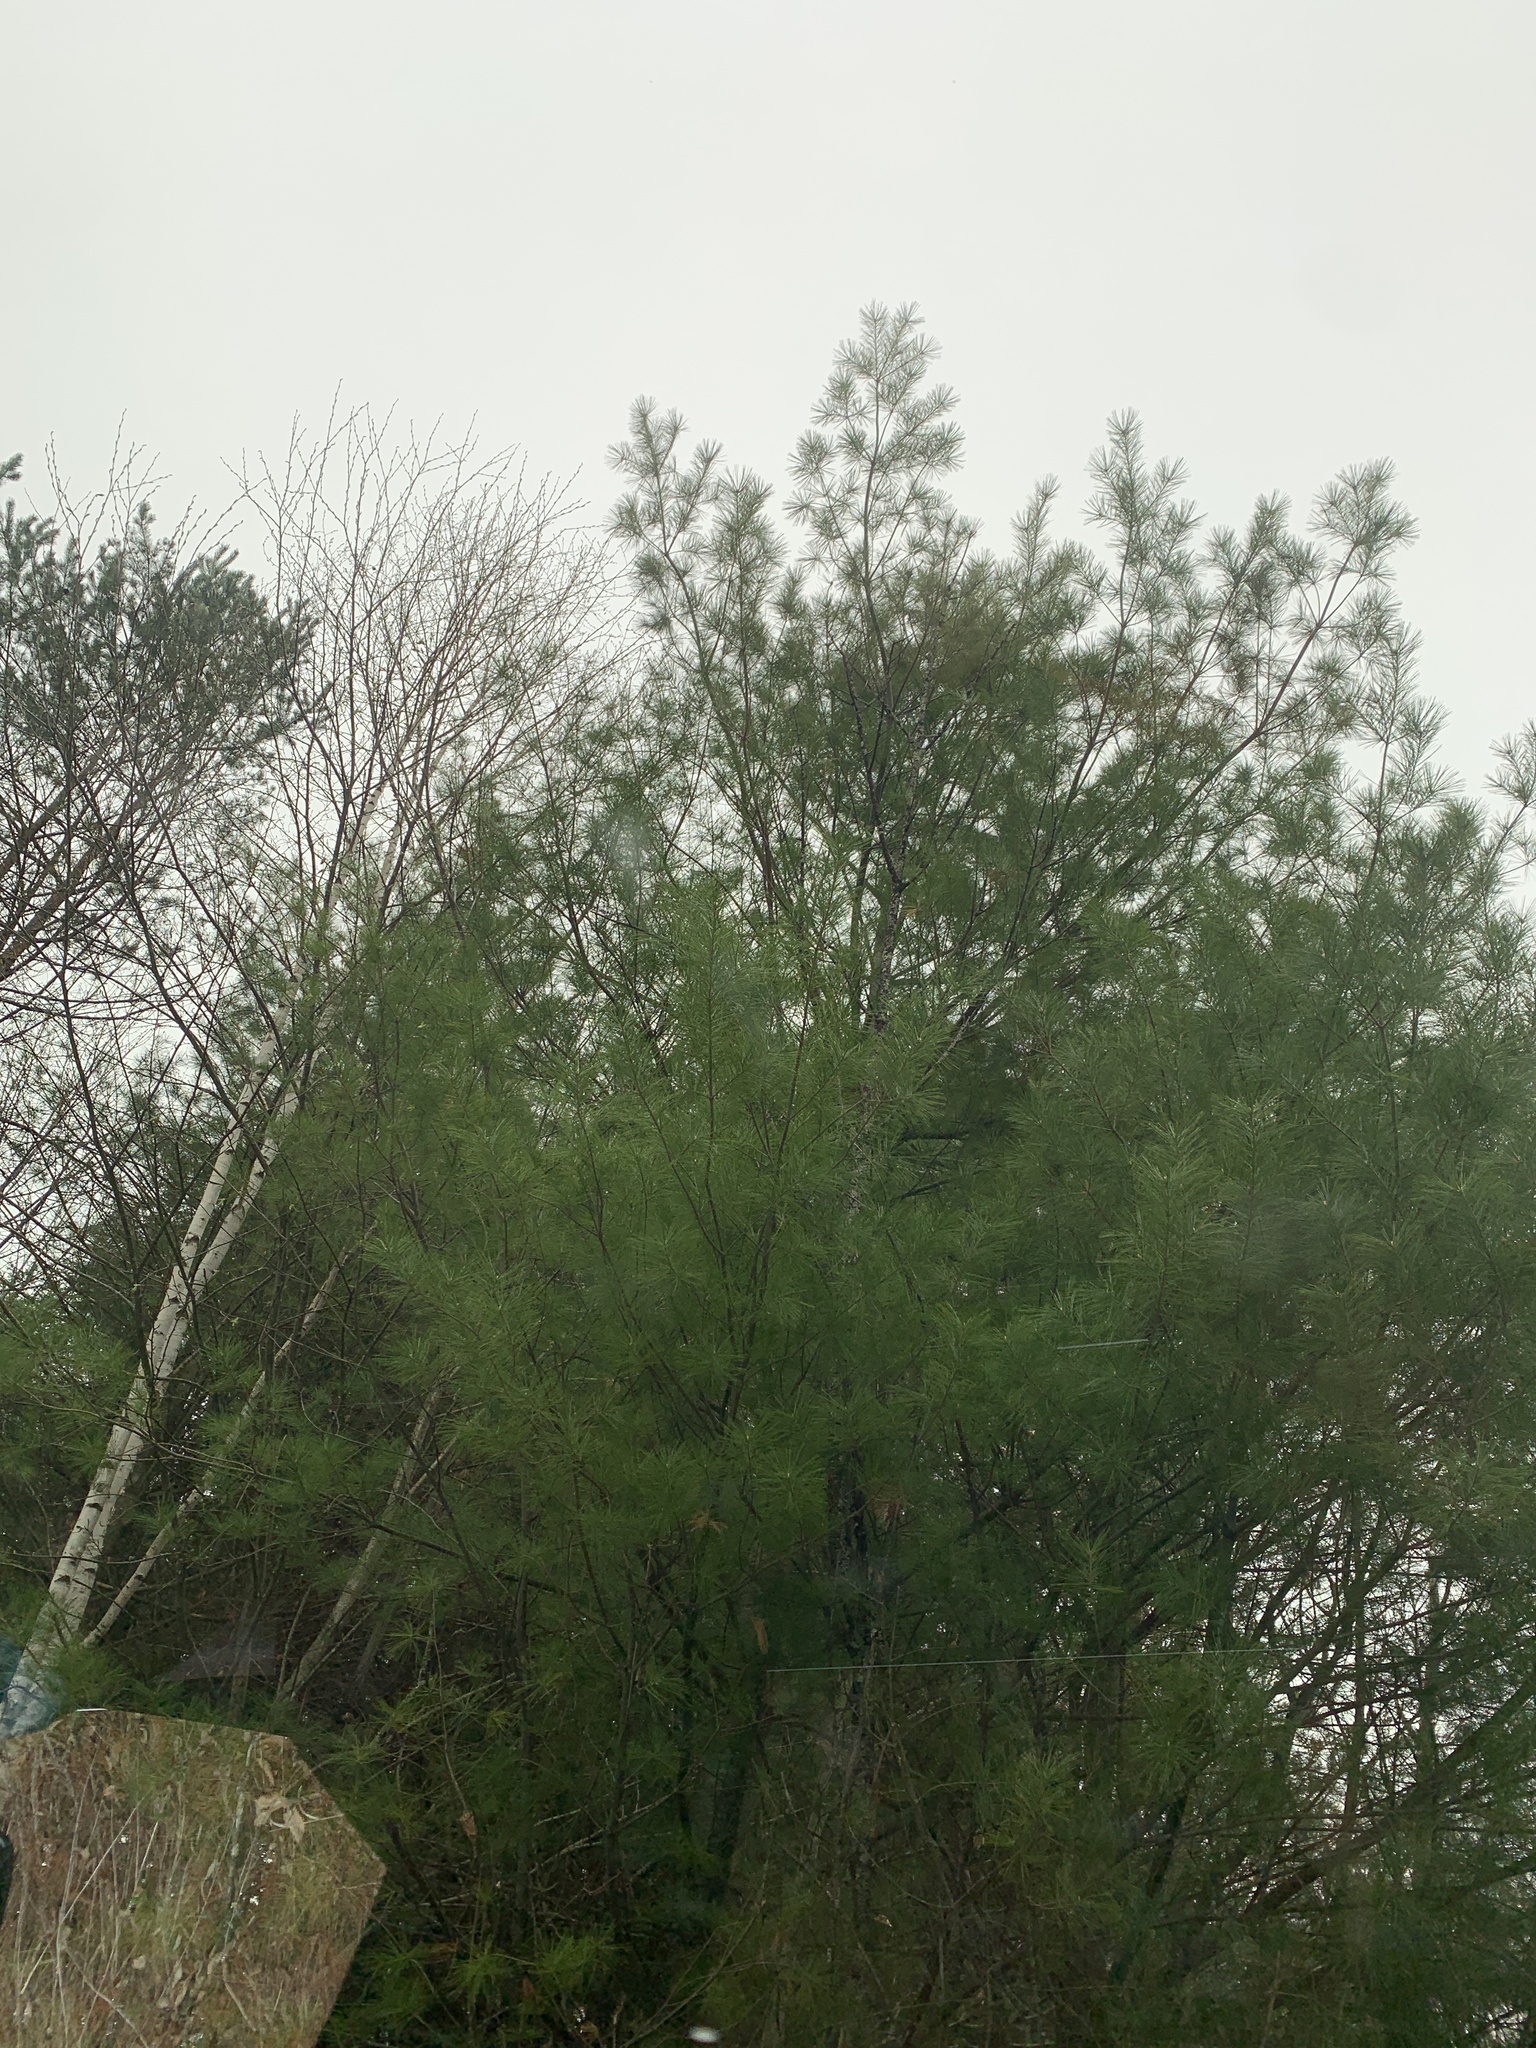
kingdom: Plantae
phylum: Tracheophyta
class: Pinopsida
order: Pinales
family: Pinaceae
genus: Pinus
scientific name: Pinus strobus
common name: Weymouth pine
